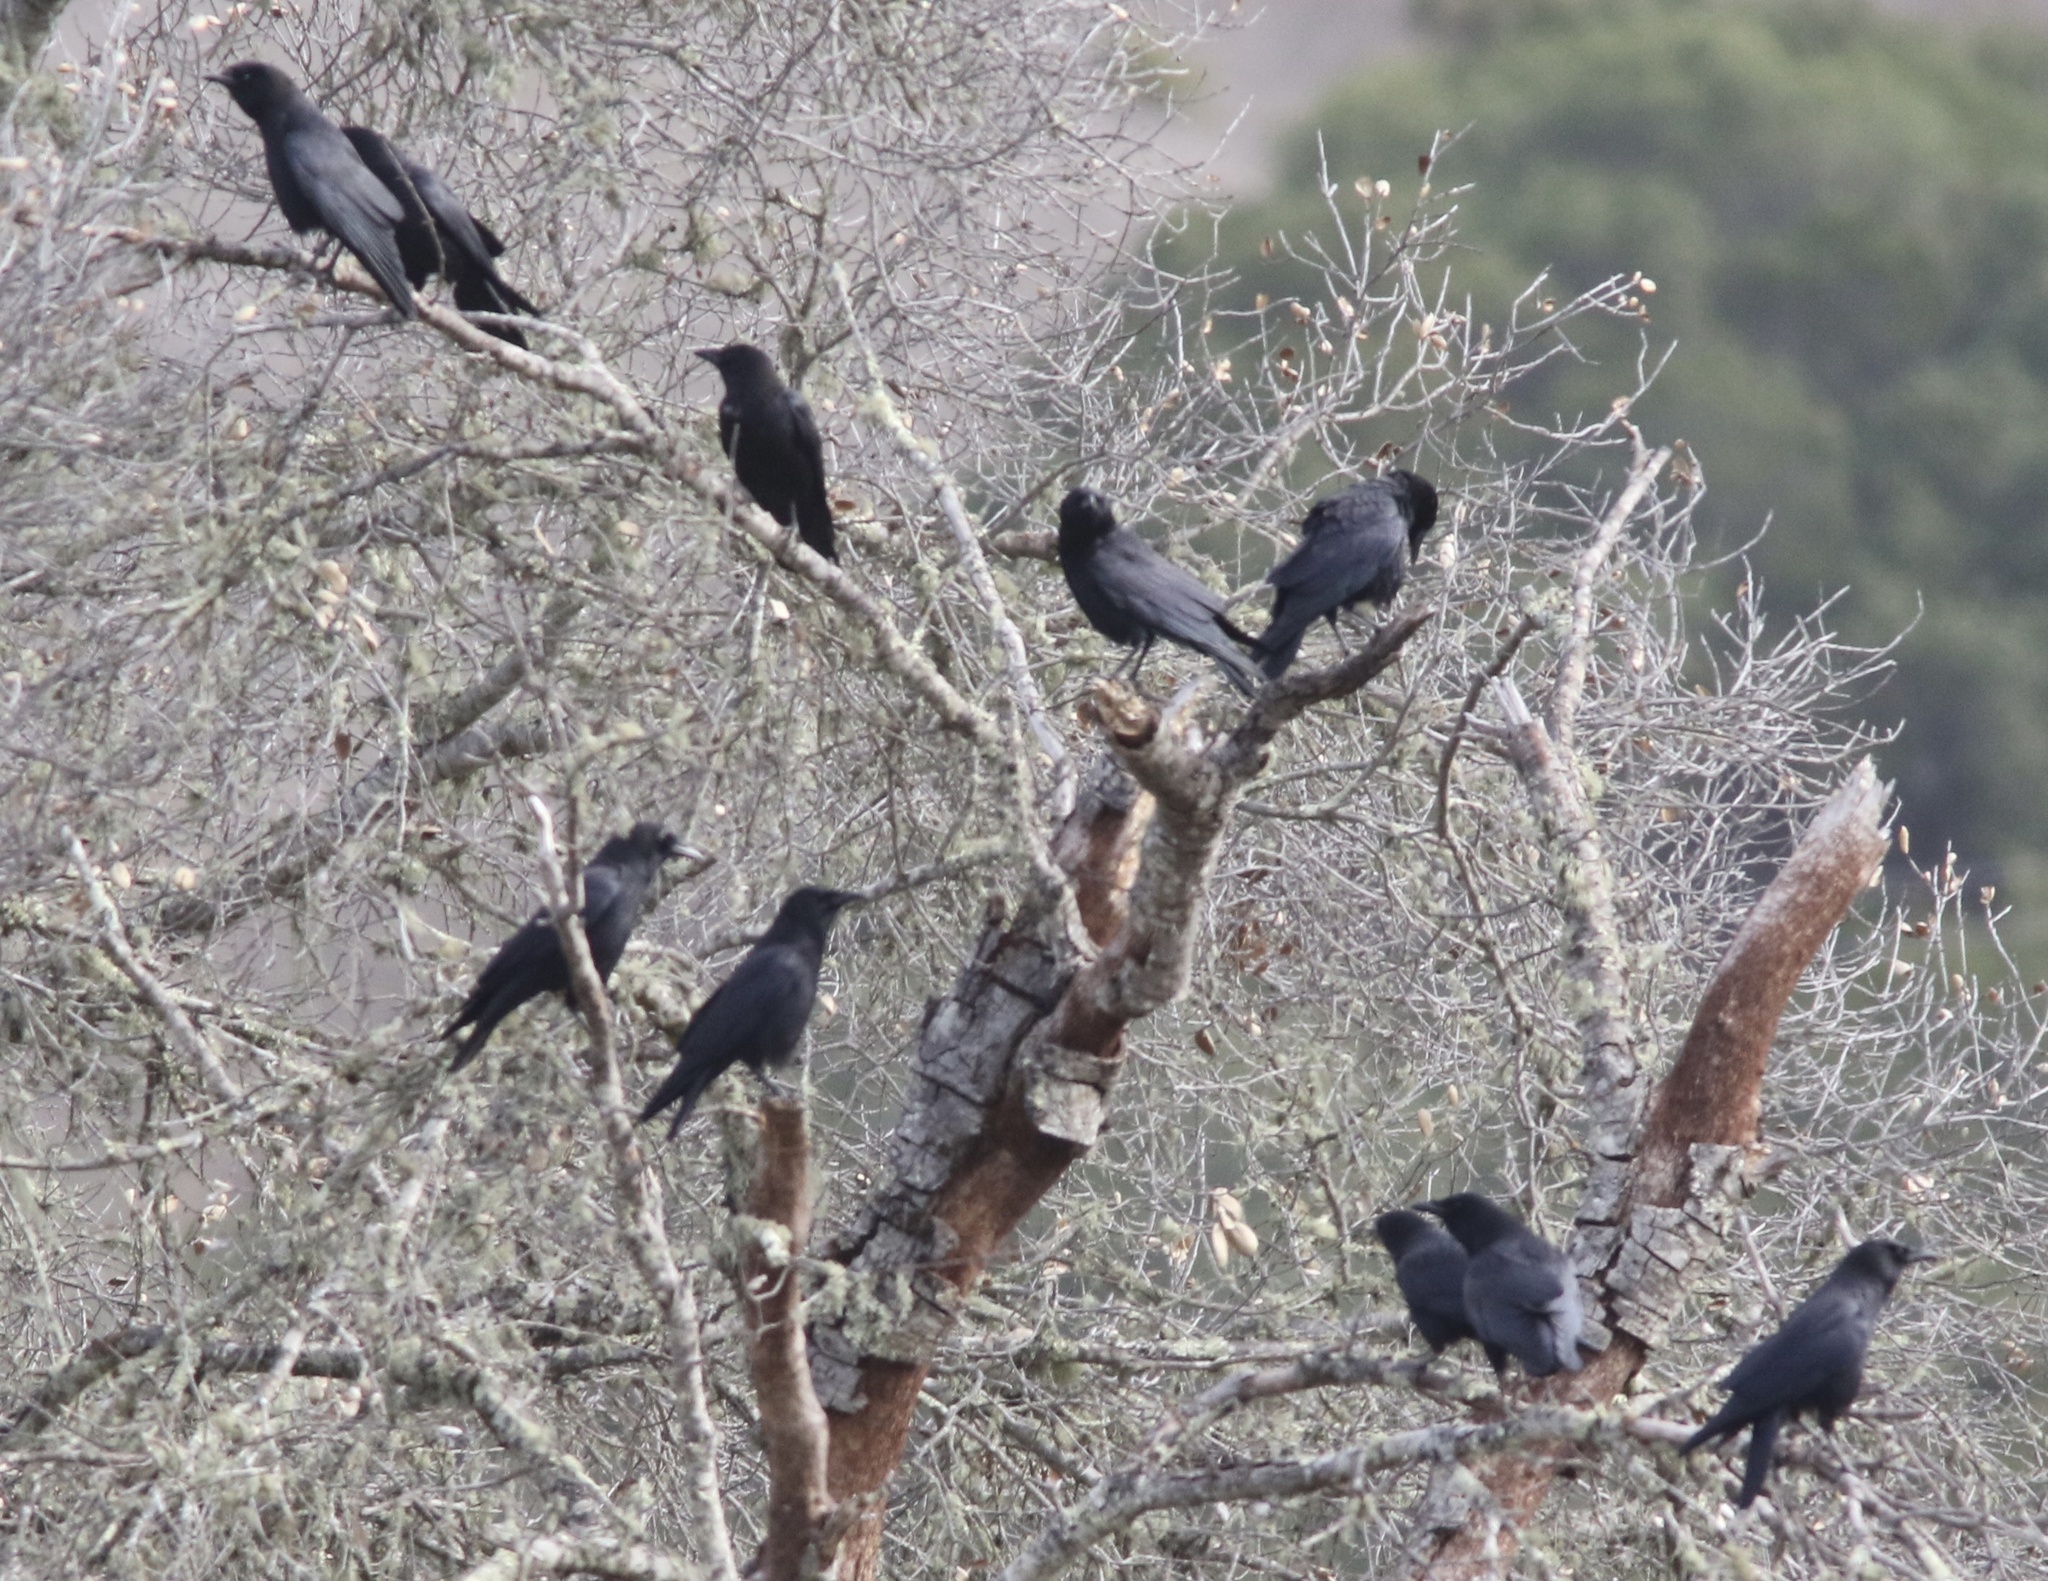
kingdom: Animalia
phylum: Chordata
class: Aves
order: Passeriformes
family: Corvidae
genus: Corvus
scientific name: Corvus brachyrhynchos
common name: American crow
